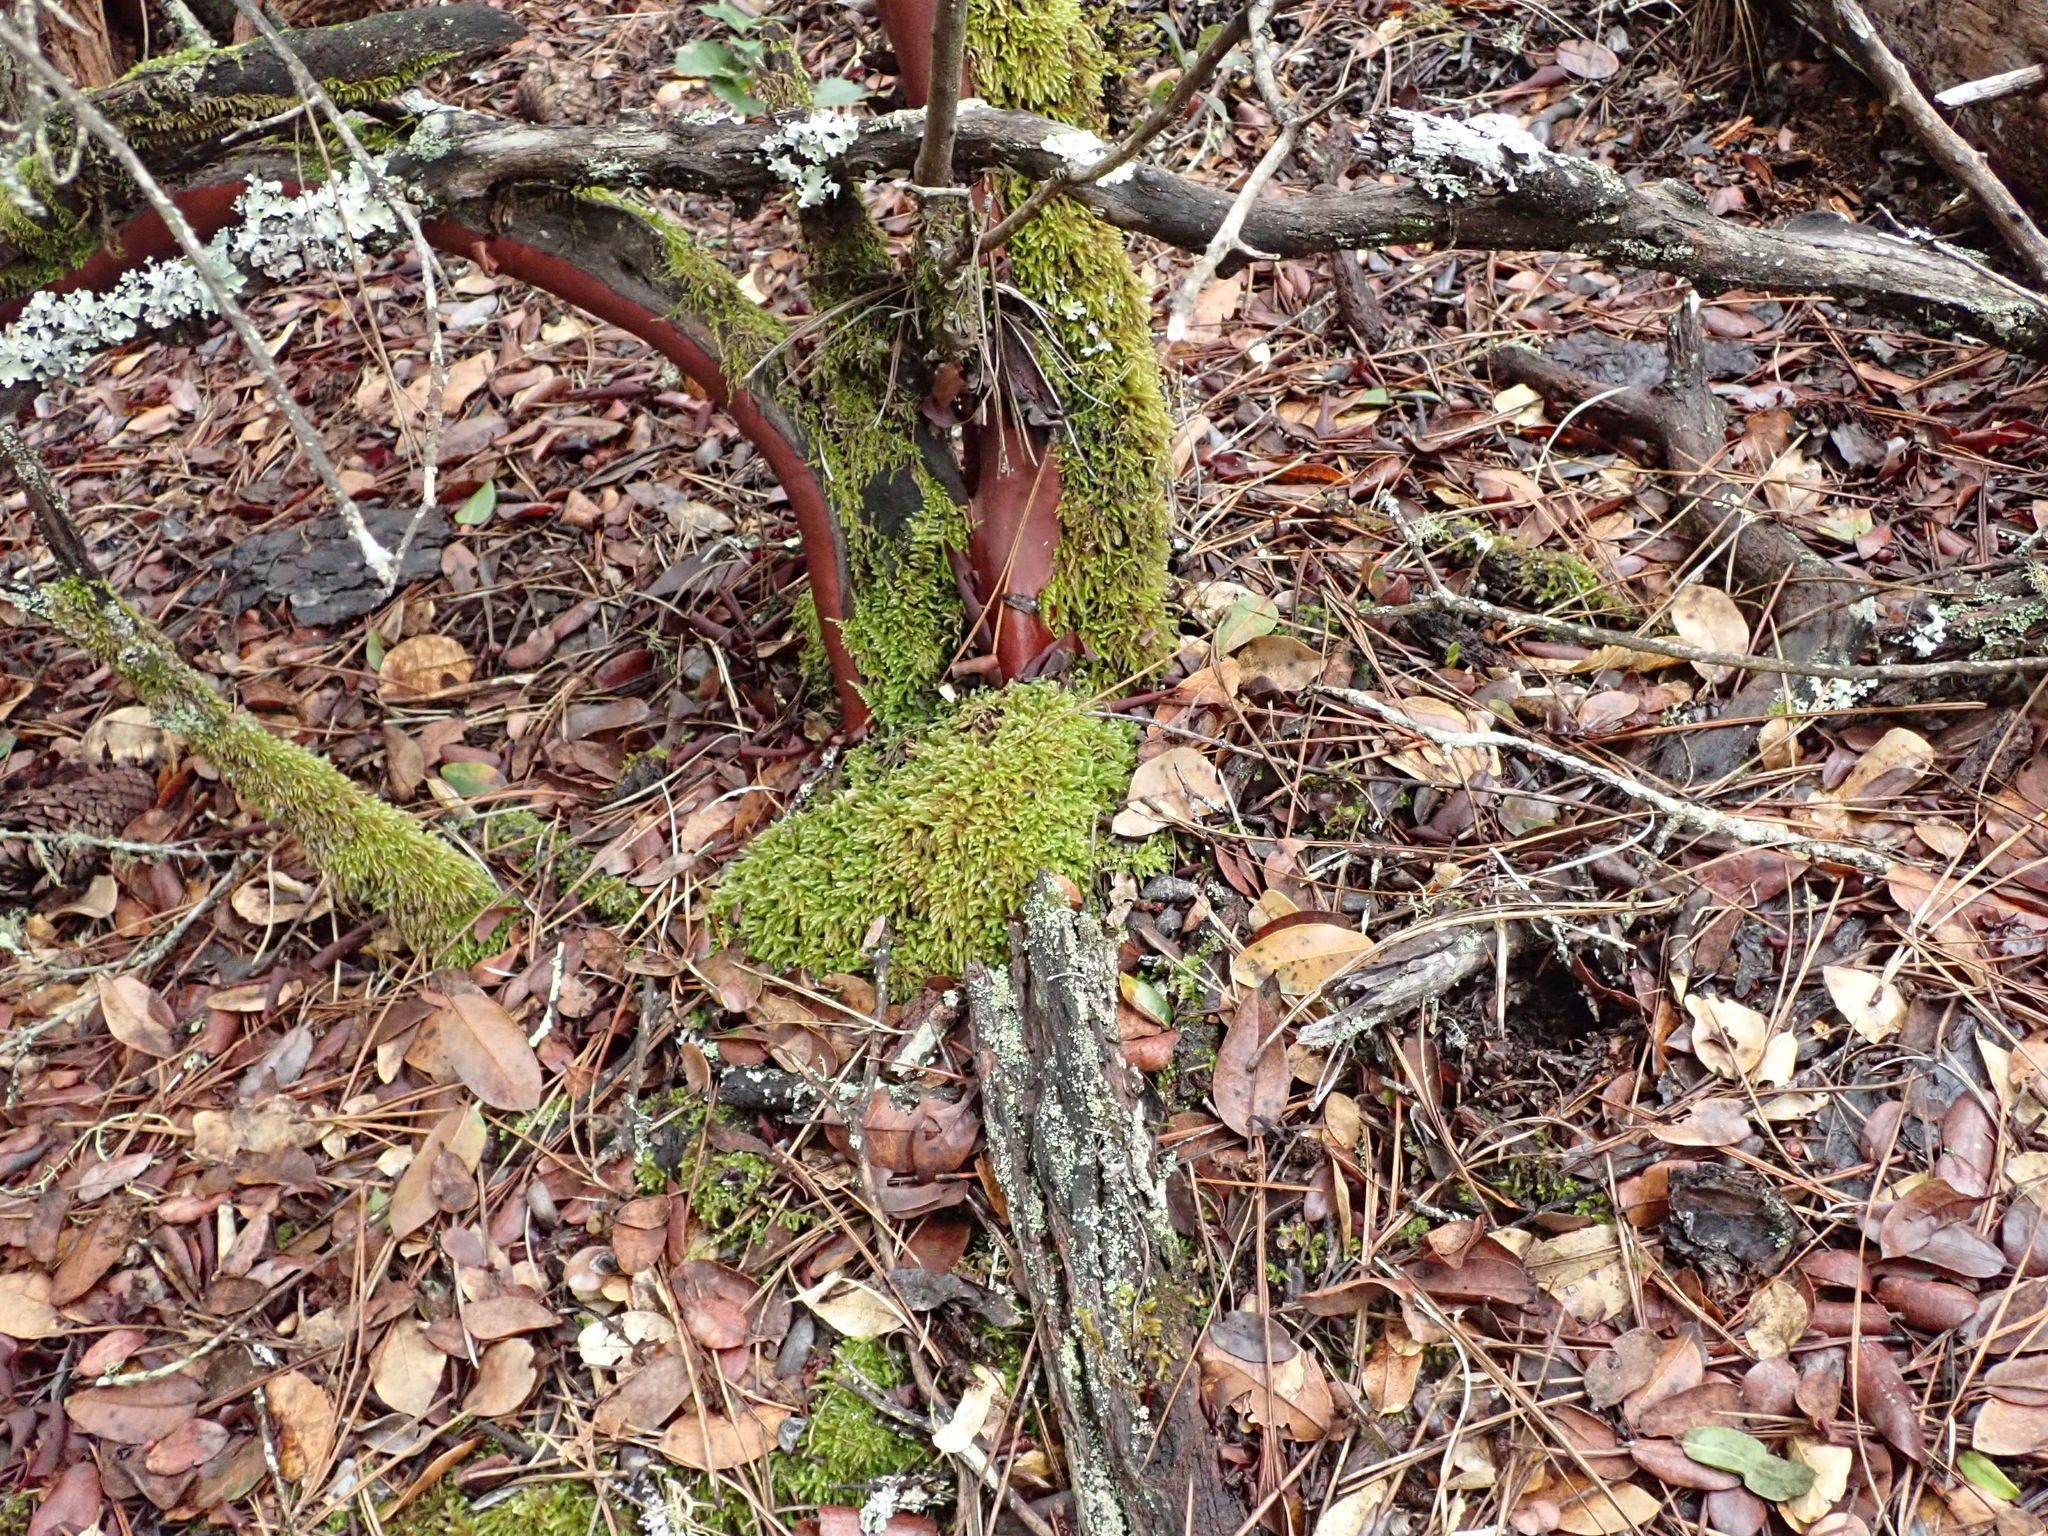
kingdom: Plantae
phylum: Tracheophyta
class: Magnoliopsida
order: Ericales
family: Ericaceae
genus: Arctostaphylos
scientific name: Arctostaphylos crustacea
